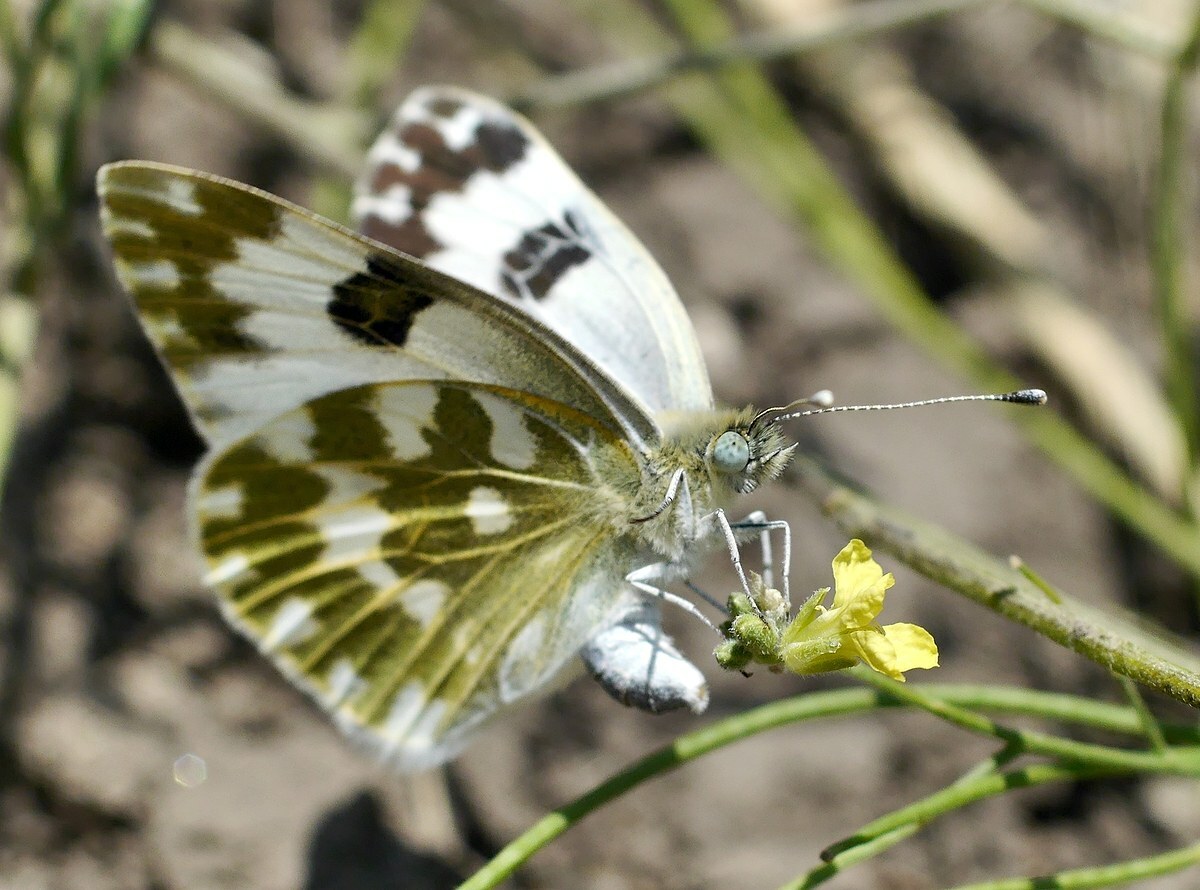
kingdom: Animalia
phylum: Arthropoda
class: Insecta
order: Lepidoptera
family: Pieridae
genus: Pontia
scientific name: Pontia edusa
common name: Eastern bath white
